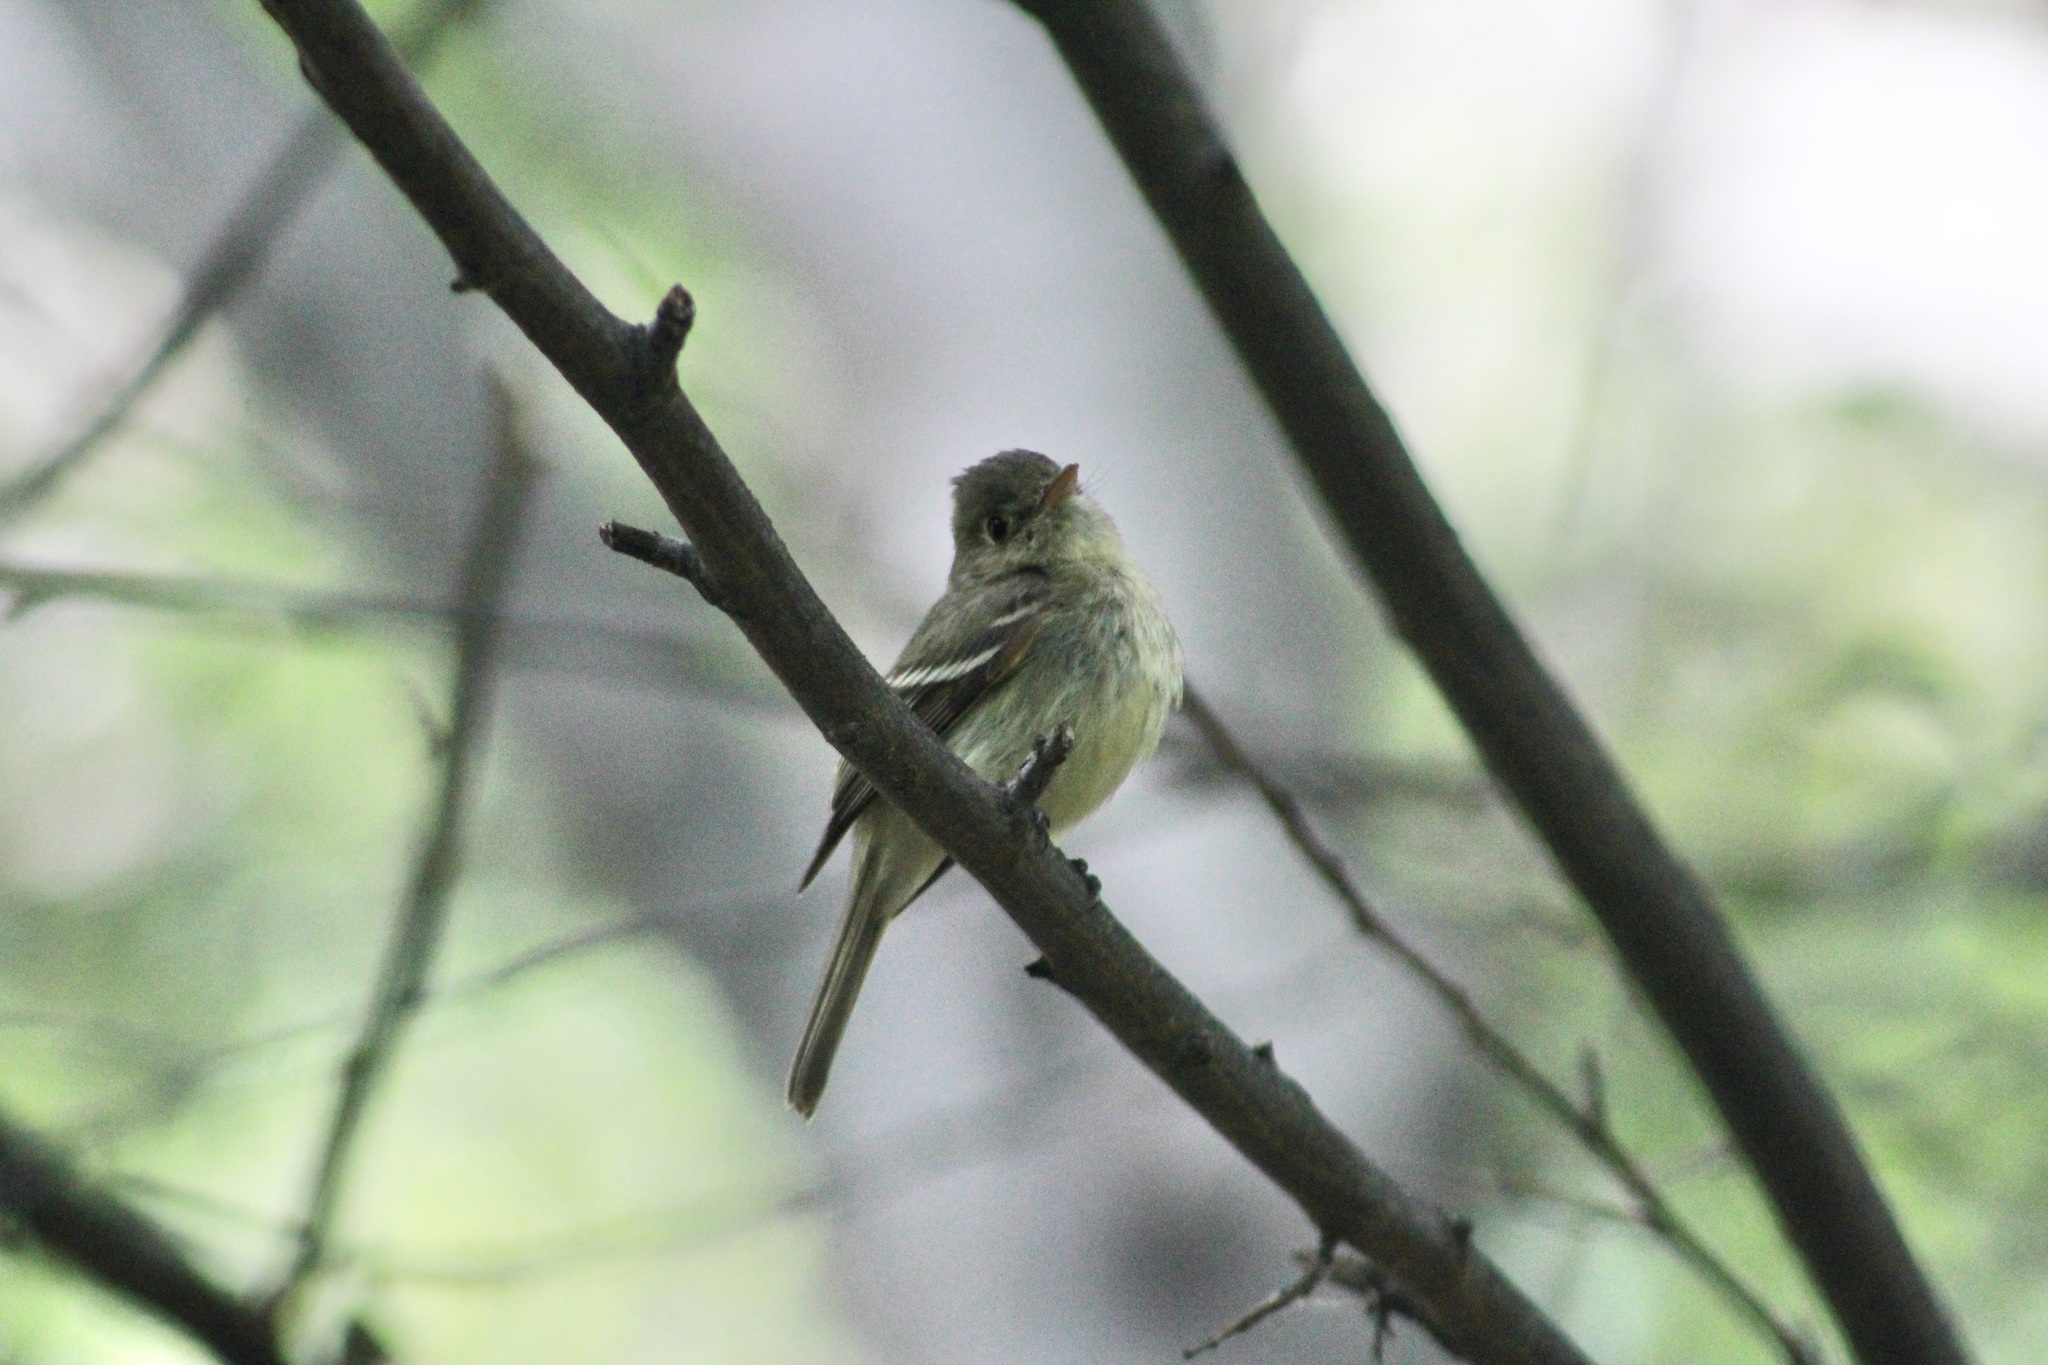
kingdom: Animalia
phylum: Chordata
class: Aves
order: Passeriformes
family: Tyrannidae
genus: Empidonax
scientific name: Empidonax difficilis
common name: Pacific-slope flycatcher
